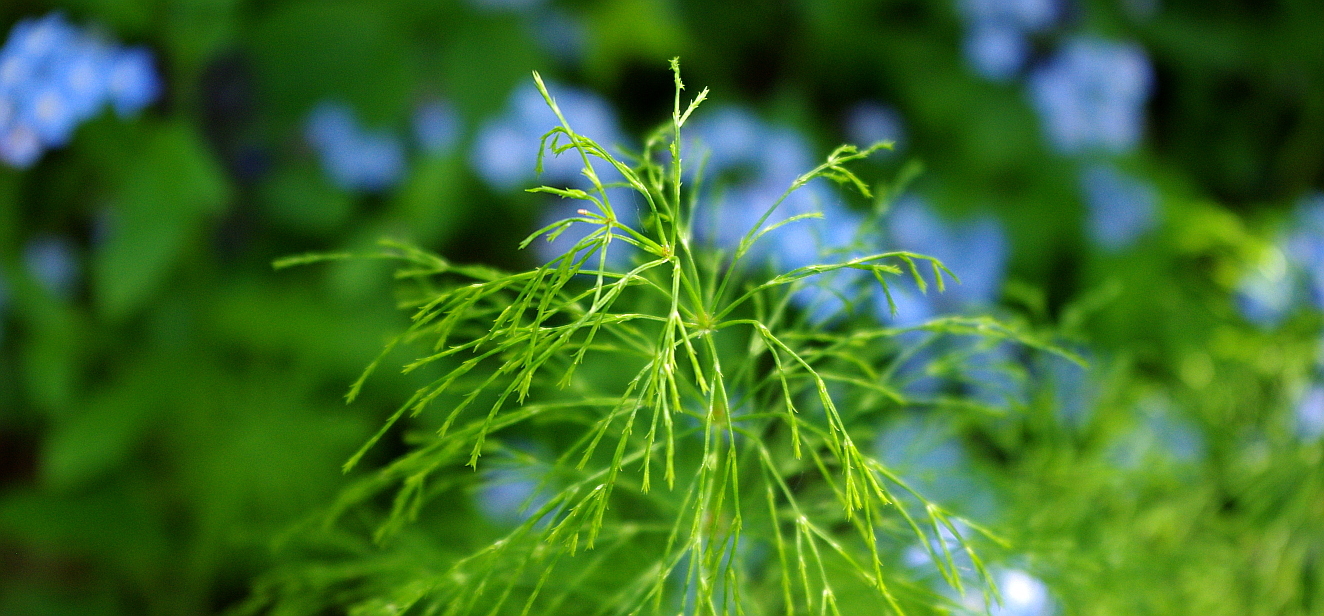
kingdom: Plantae
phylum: Tracheophyta
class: Polypodiopsida
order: Equisetales
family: Equisetaceae
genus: Equisetum
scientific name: Equisetum sylvaticum
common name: Wood horsetail
